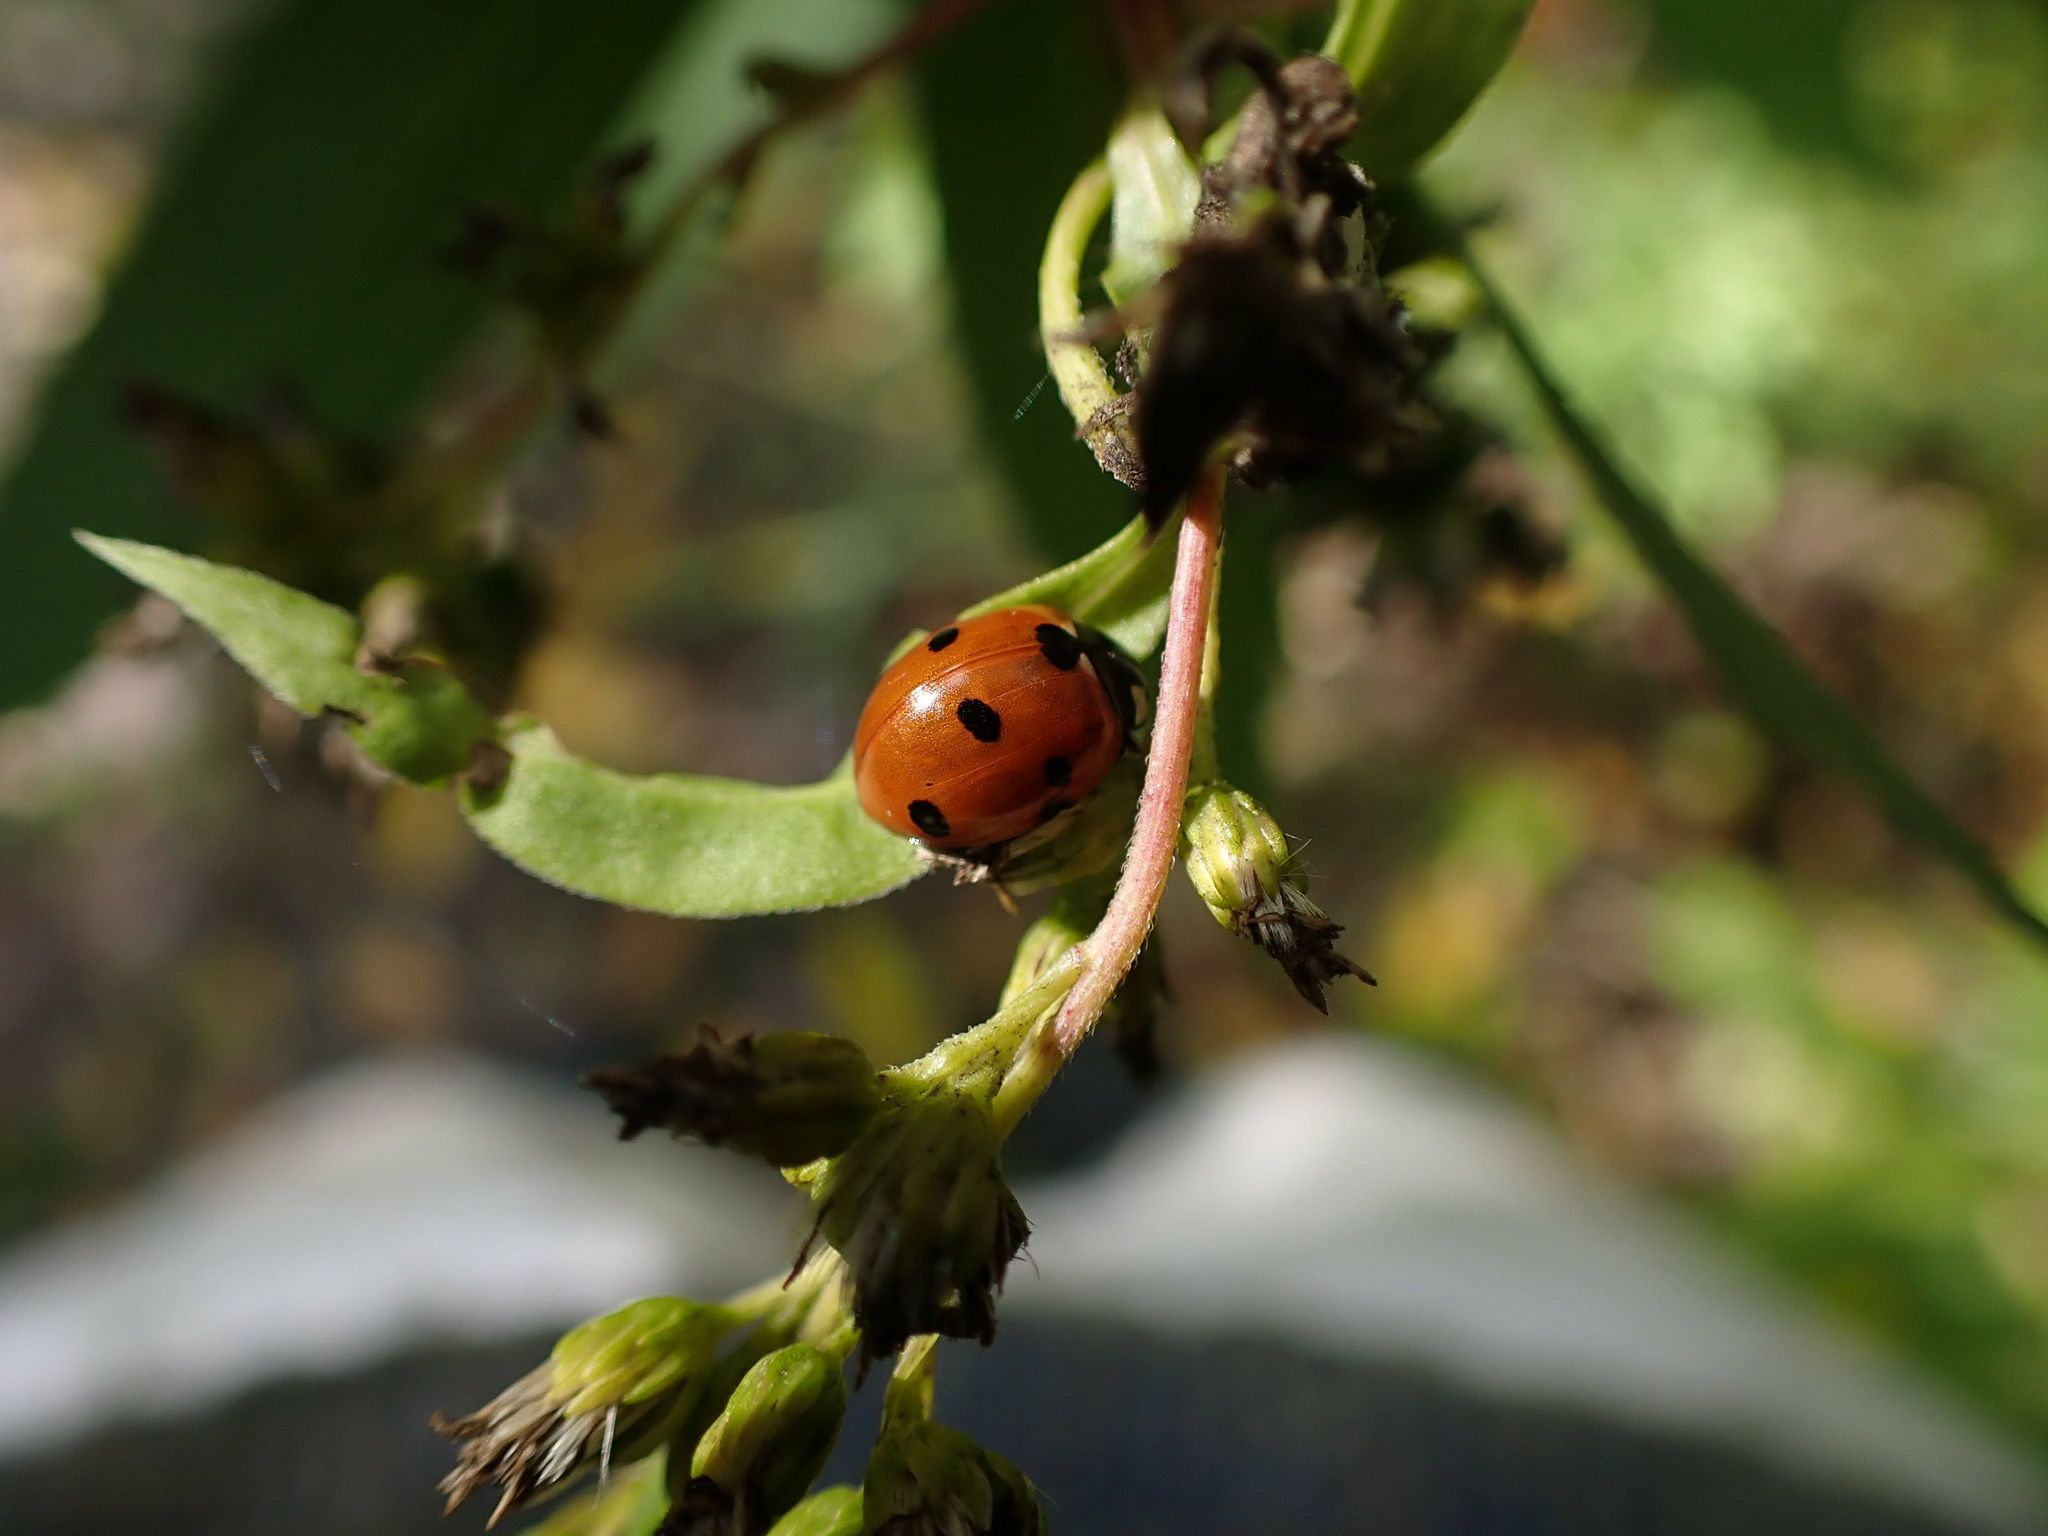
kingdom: Animalia
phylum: Arthropoda
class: Insecta
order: Coleoptera
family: Coccinellidae
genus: Coccinella
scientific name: Coccinella septempunctata
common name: Sevenspotted lady beetle
